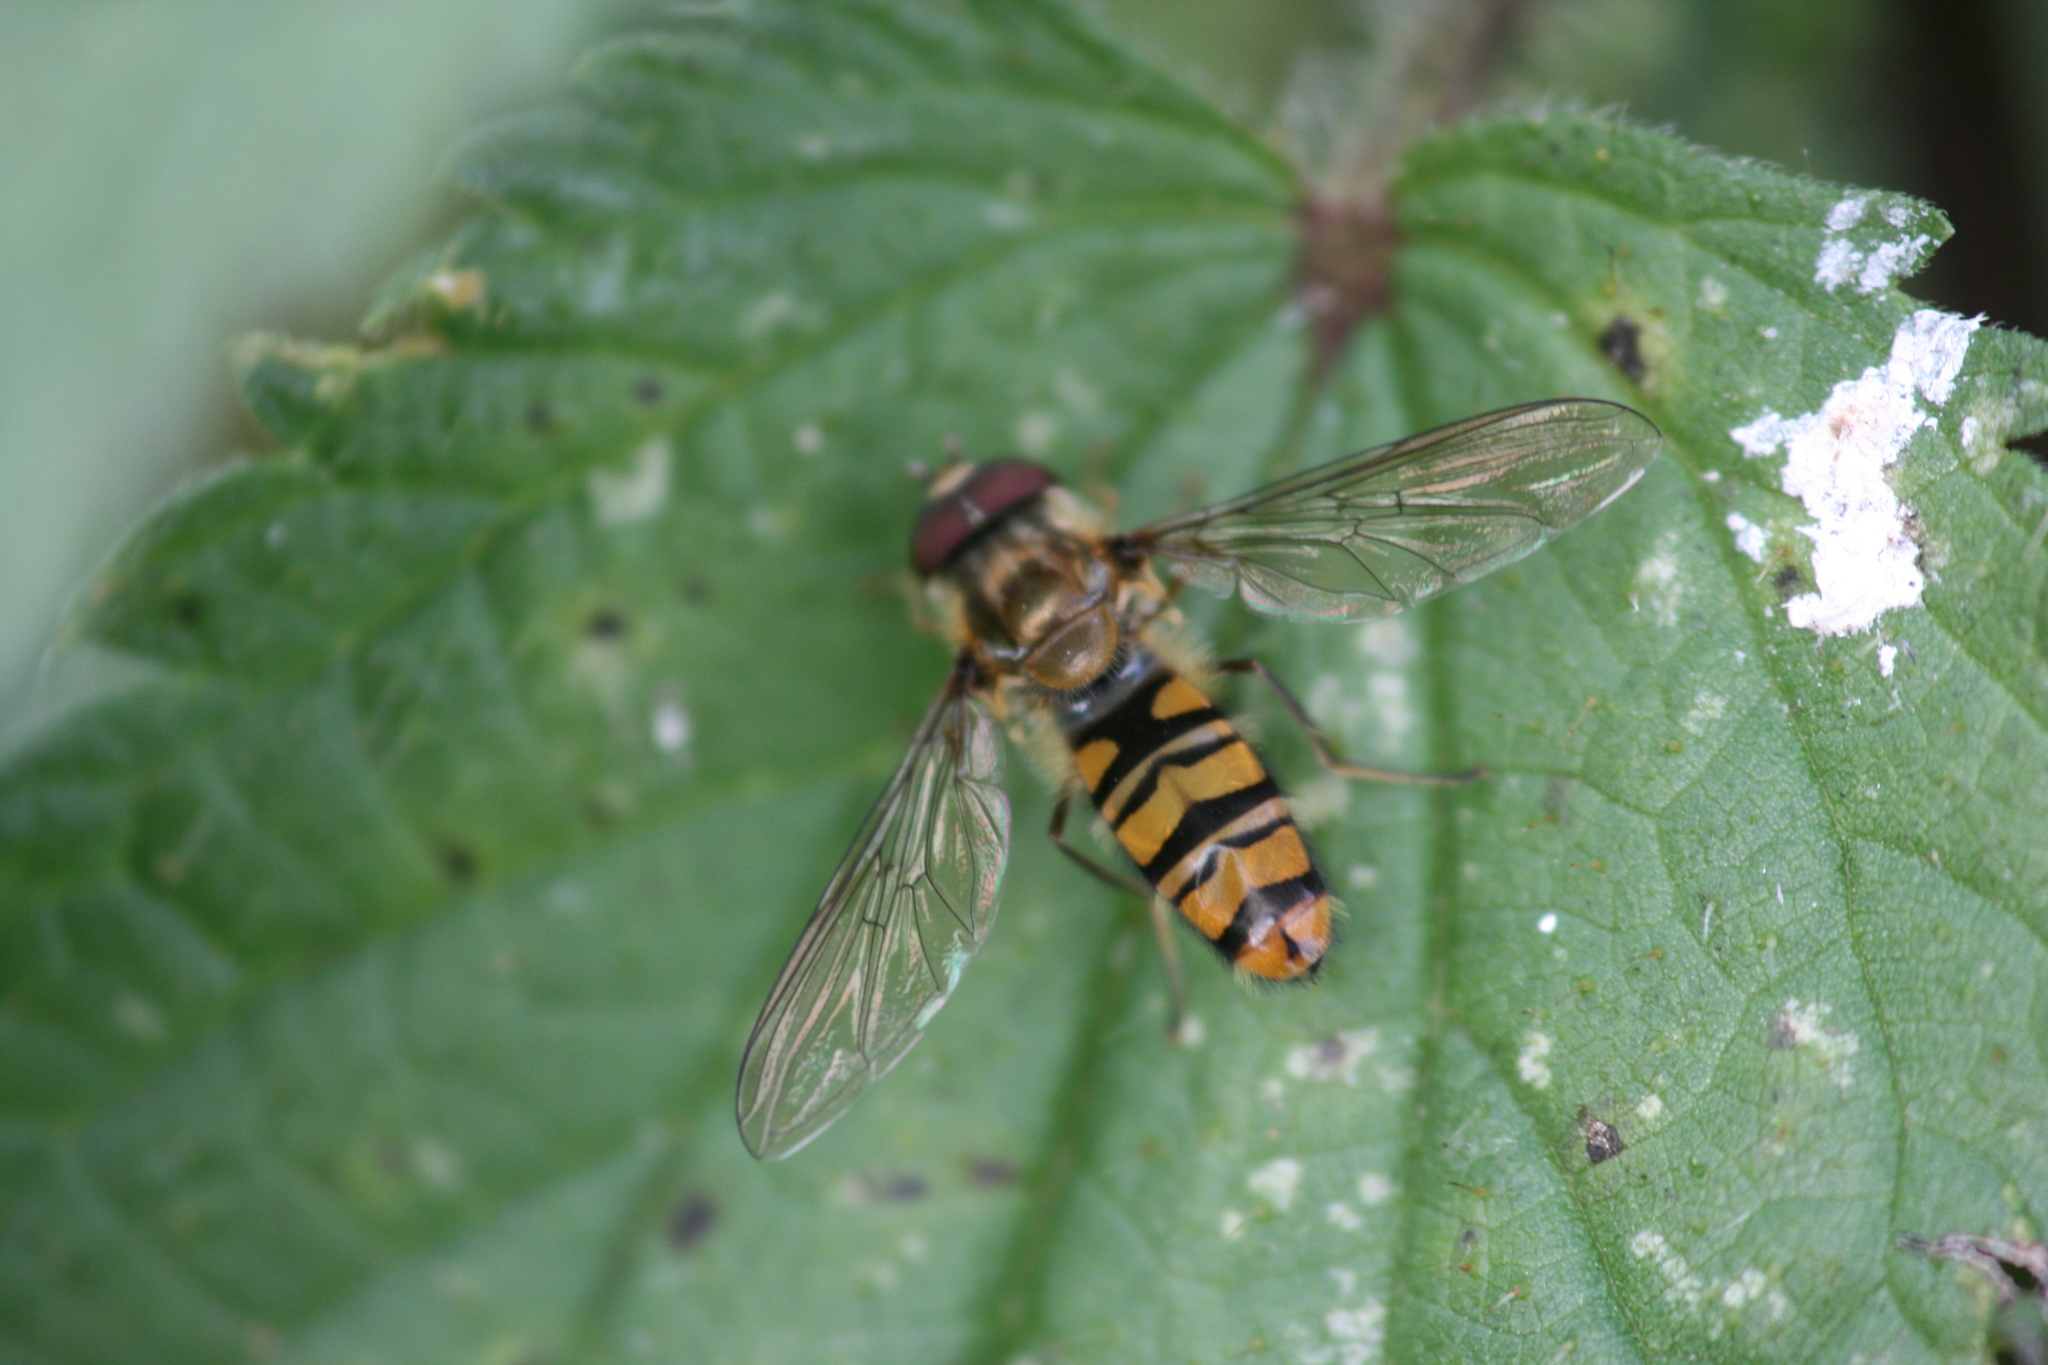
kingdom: Animalia
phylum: Arthropoda
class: Insecta
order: Diptera
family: Syrphidae
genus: Episyrphus
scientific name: Episyrphus balteatus
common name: Marmalade hoverfly
